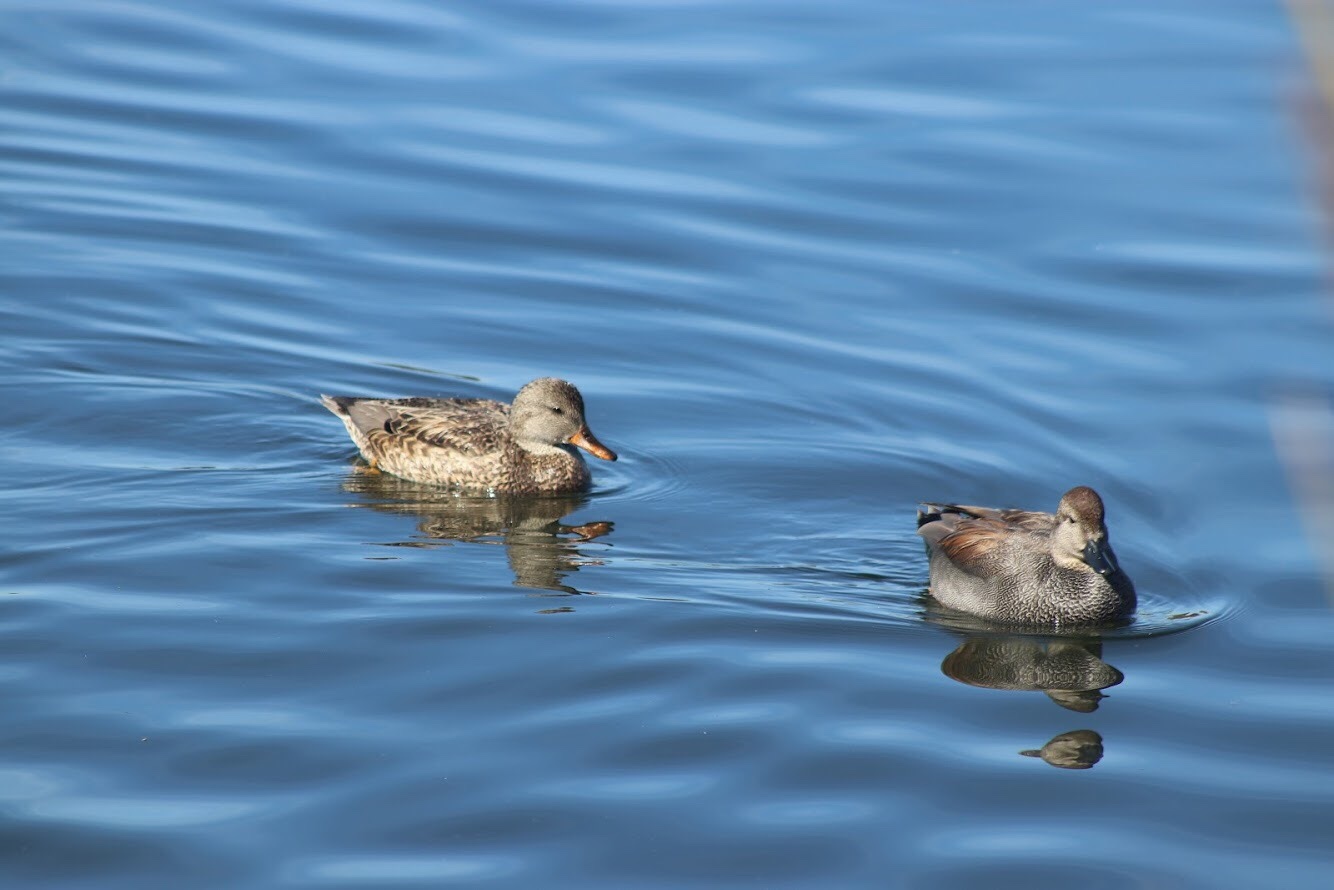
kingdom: Animalia
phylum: Chordata
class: Aves
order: Anseriformes
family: Anatidae
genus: Mareca
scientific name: Mareca strepera
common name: Gadwall
